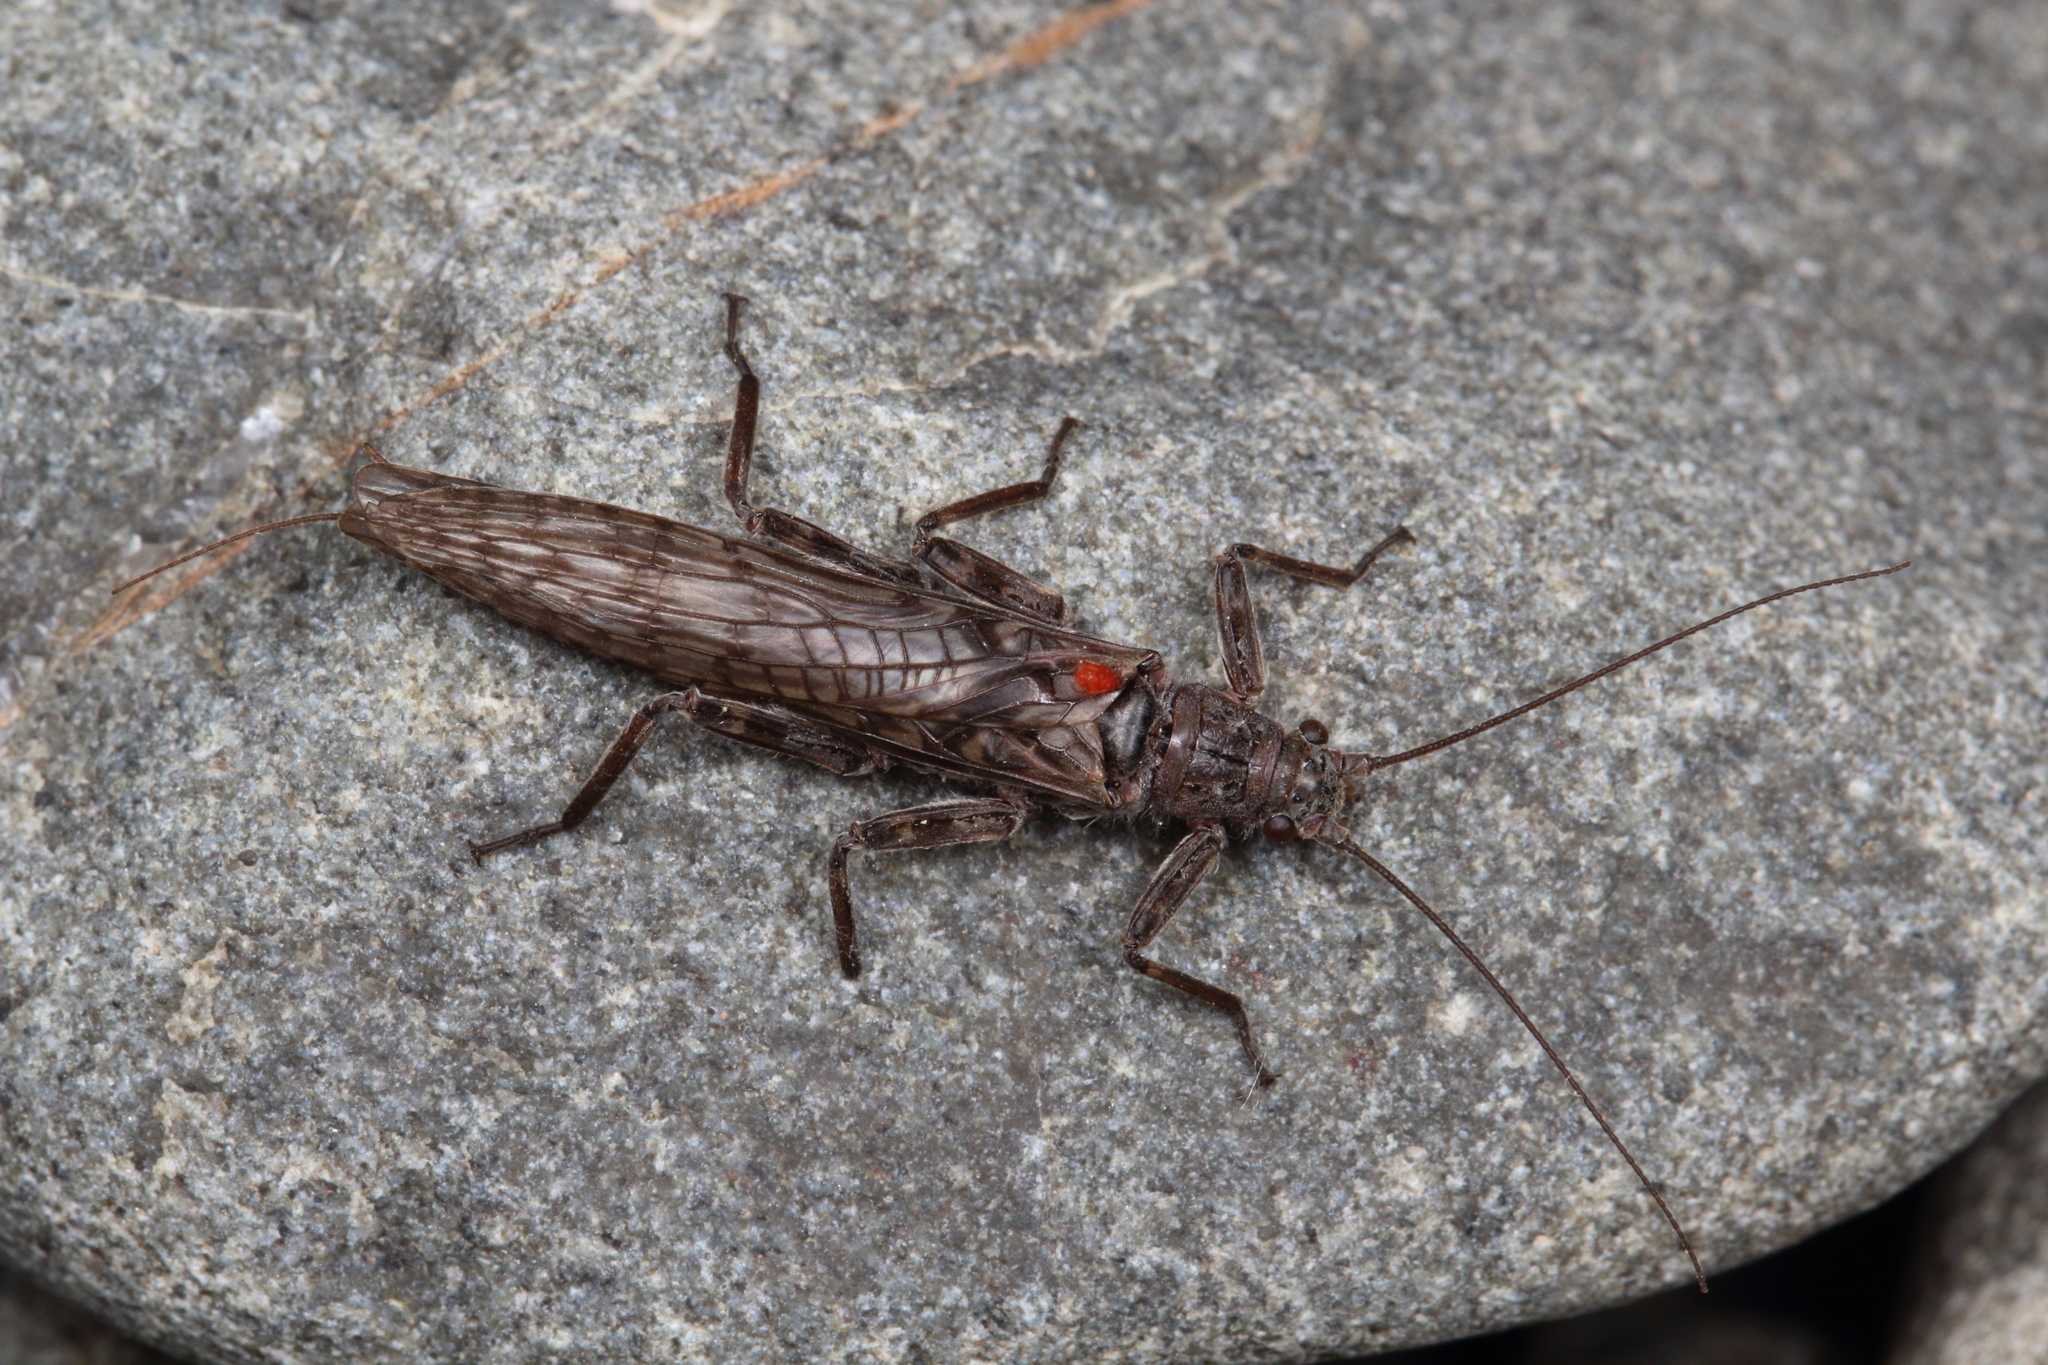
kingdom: Animalia
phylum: Arthropoda
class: Insecta
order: Plecoptera
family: Gripopterygidae
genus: Zelandoperla
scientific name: Zelandoperla decorata
